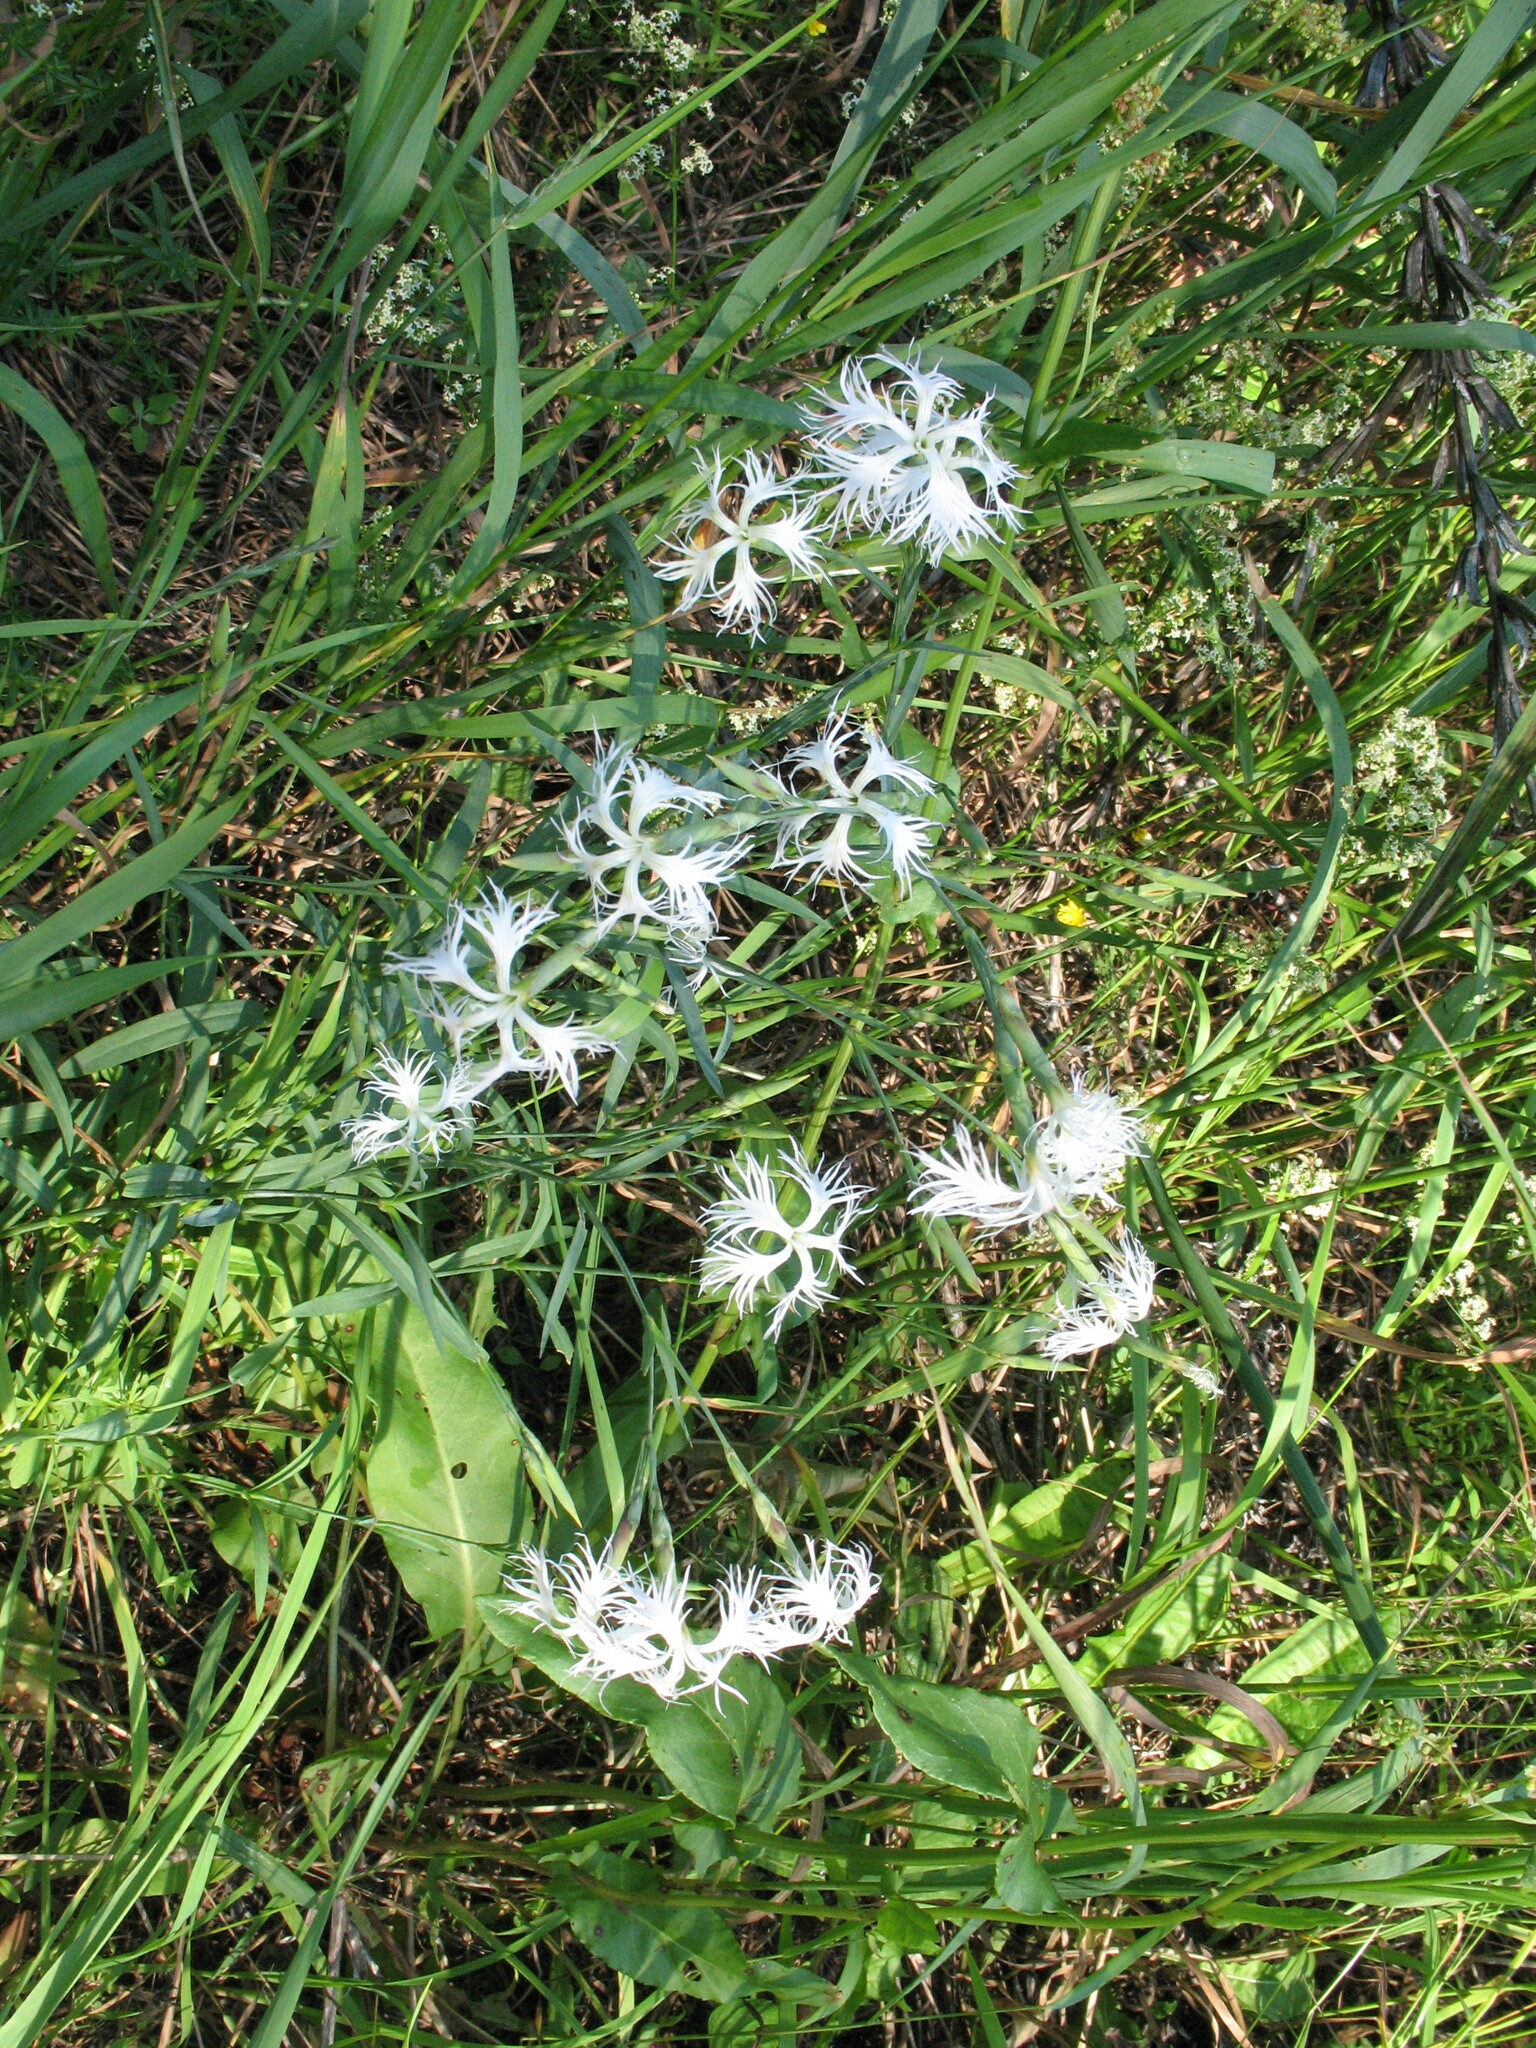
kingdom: Plantae
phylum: Tracheophyta
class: Magnoliopsida
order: Caryophyllales
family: Caryophyllaceae
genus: Dianthus
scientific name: Dianthus superbus
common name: Fringed pink
